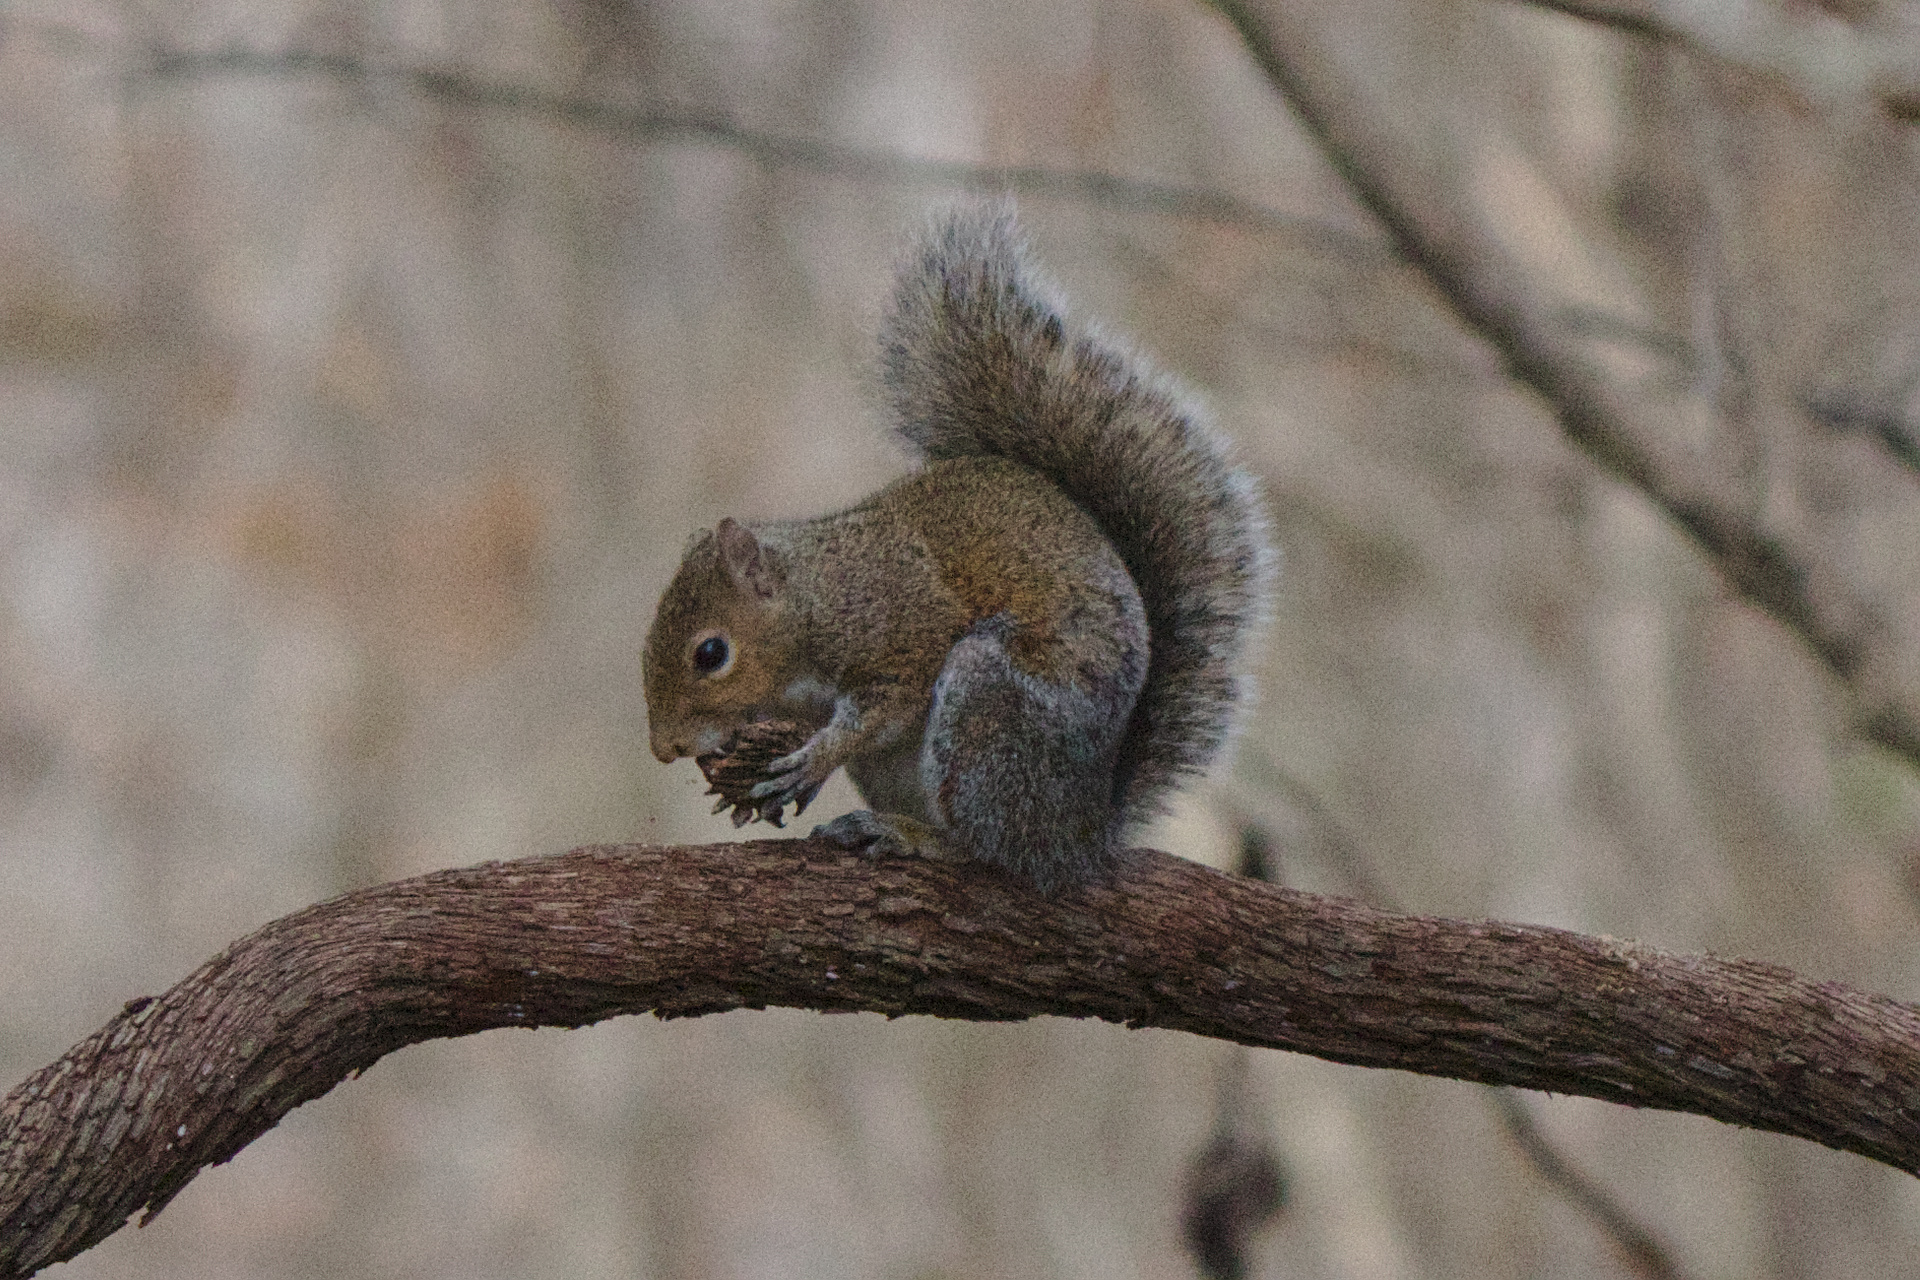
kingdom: Animalia
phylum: Chordata
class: Mammalia
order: Rodentia
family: Sciuridae
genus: Sciurus
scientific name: Sciurus carolinensis
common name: Eastern gray squirrel
